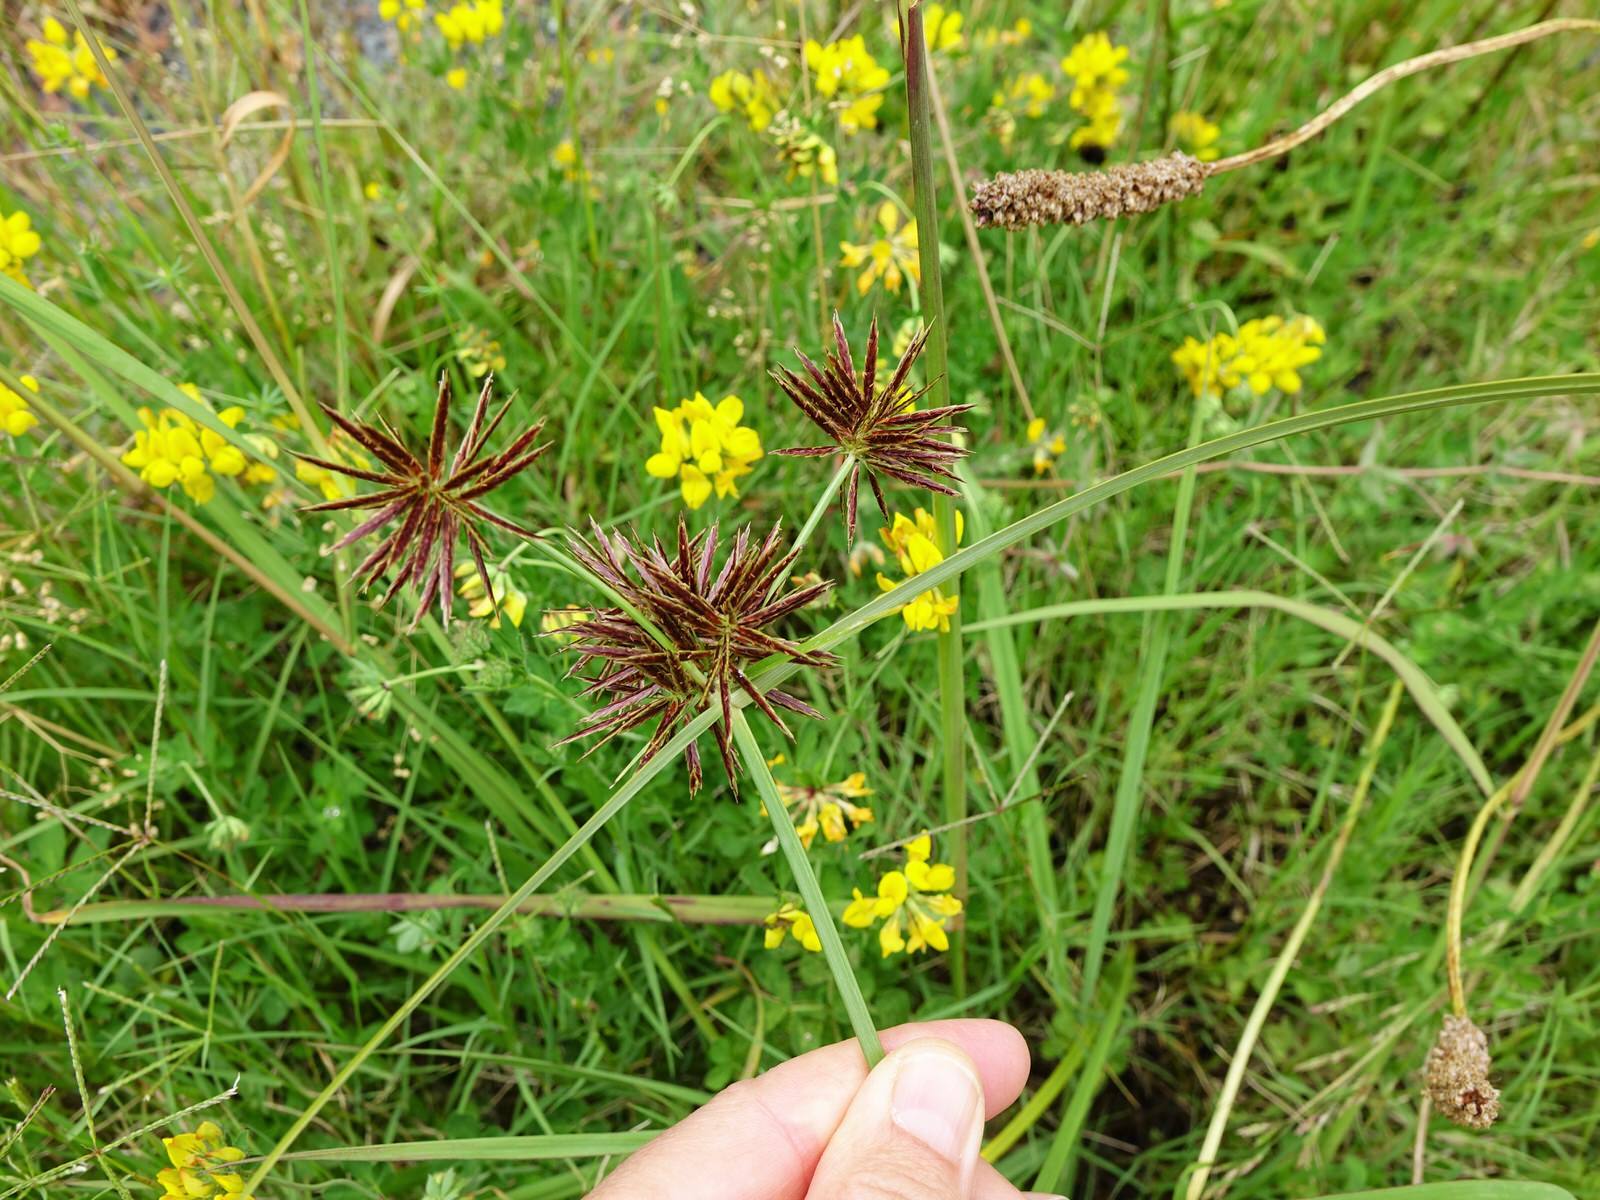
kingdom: Plantae
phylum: Tracheophyta
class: Liliopsida
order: Poales
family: Cyperaceae
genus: Cyperus
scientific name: Cyperus congestus
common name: Dense flat sedge
